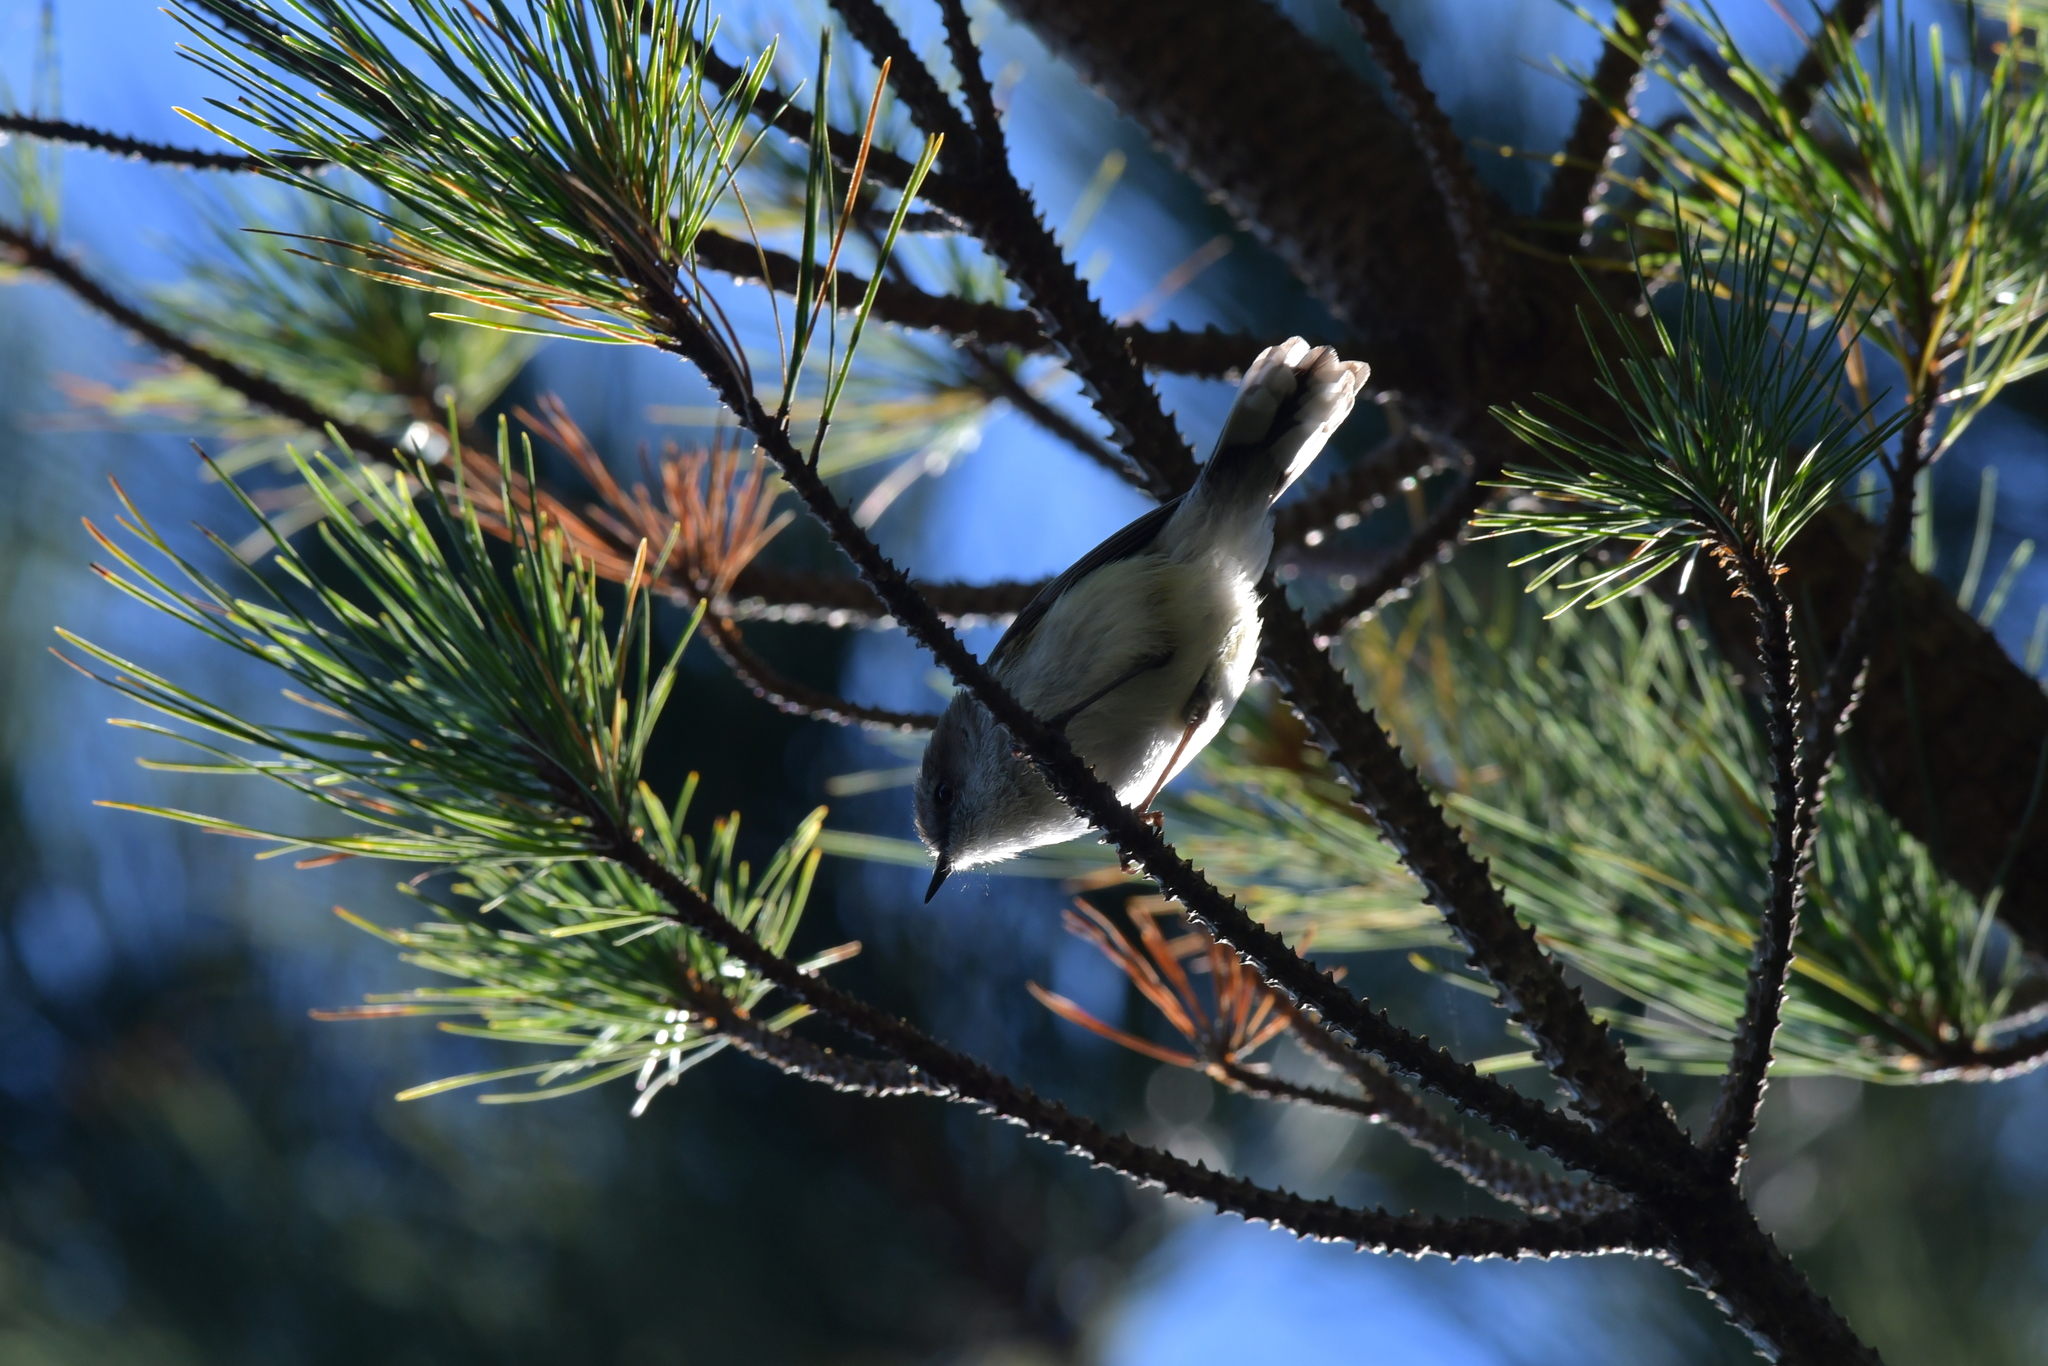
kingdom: Animalia
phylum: Chordata
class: Aves
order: Passeriformes
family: Acanthizidae
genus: Gerygone
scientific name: Gerygone igata
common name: Grey gerygone
